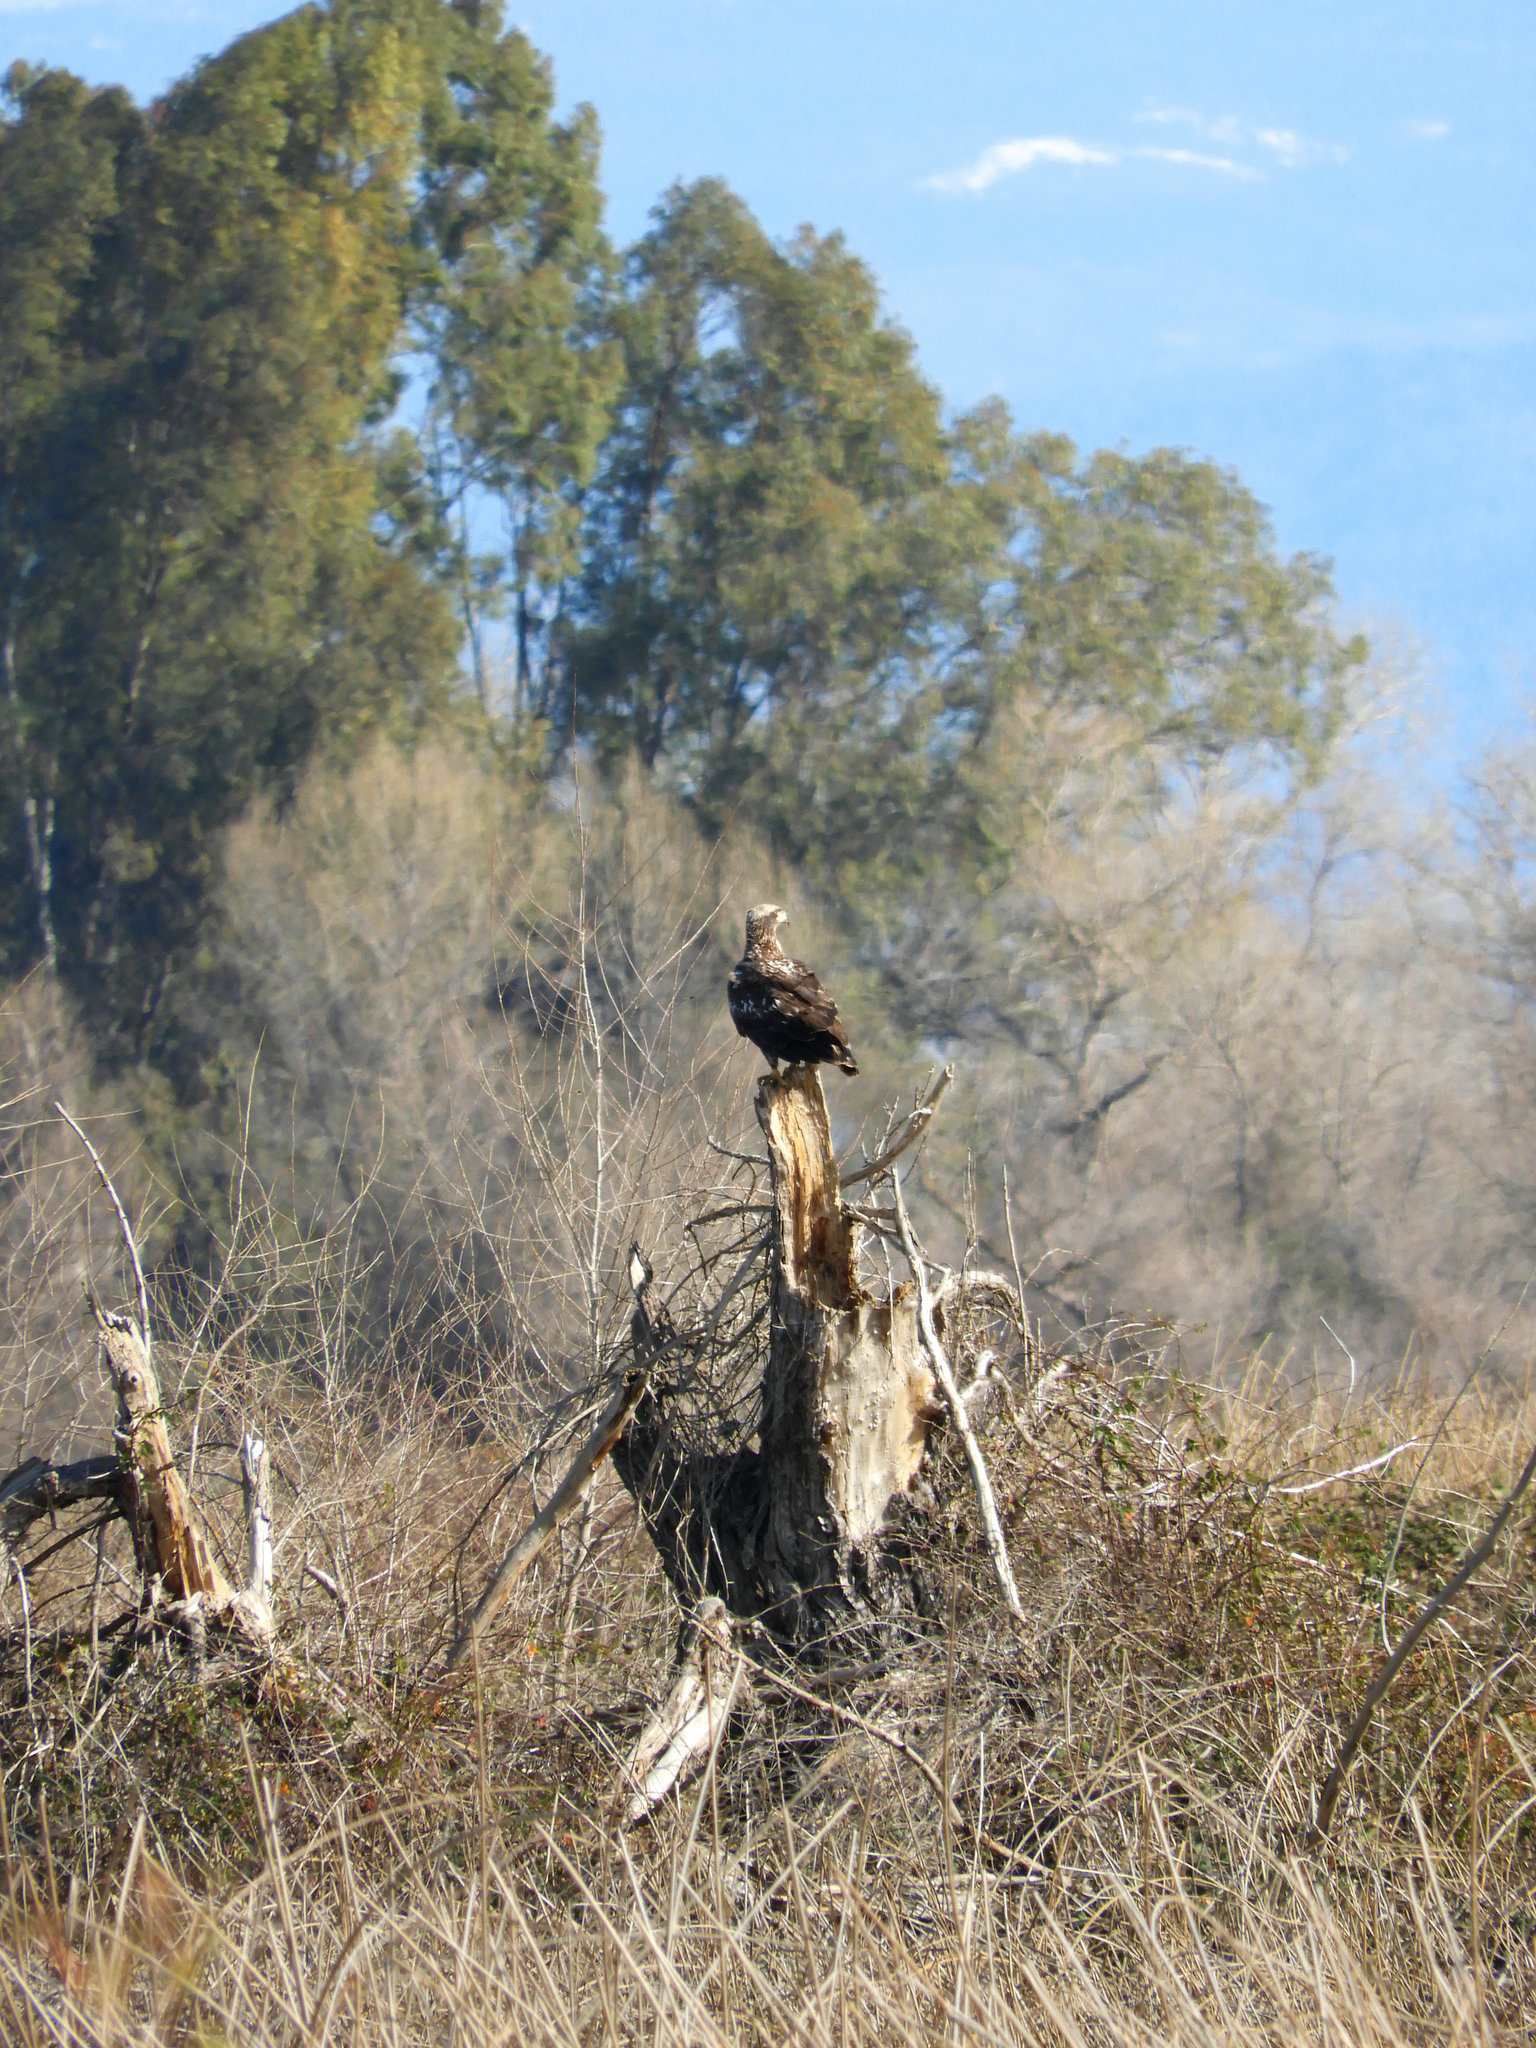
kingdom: Animalia
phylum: Chordata
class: Aves
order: Accipitriformes
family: Accipitridae
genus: Haliaeetus
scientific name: Haliaeetus leucocephalus
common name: Bald eagle
